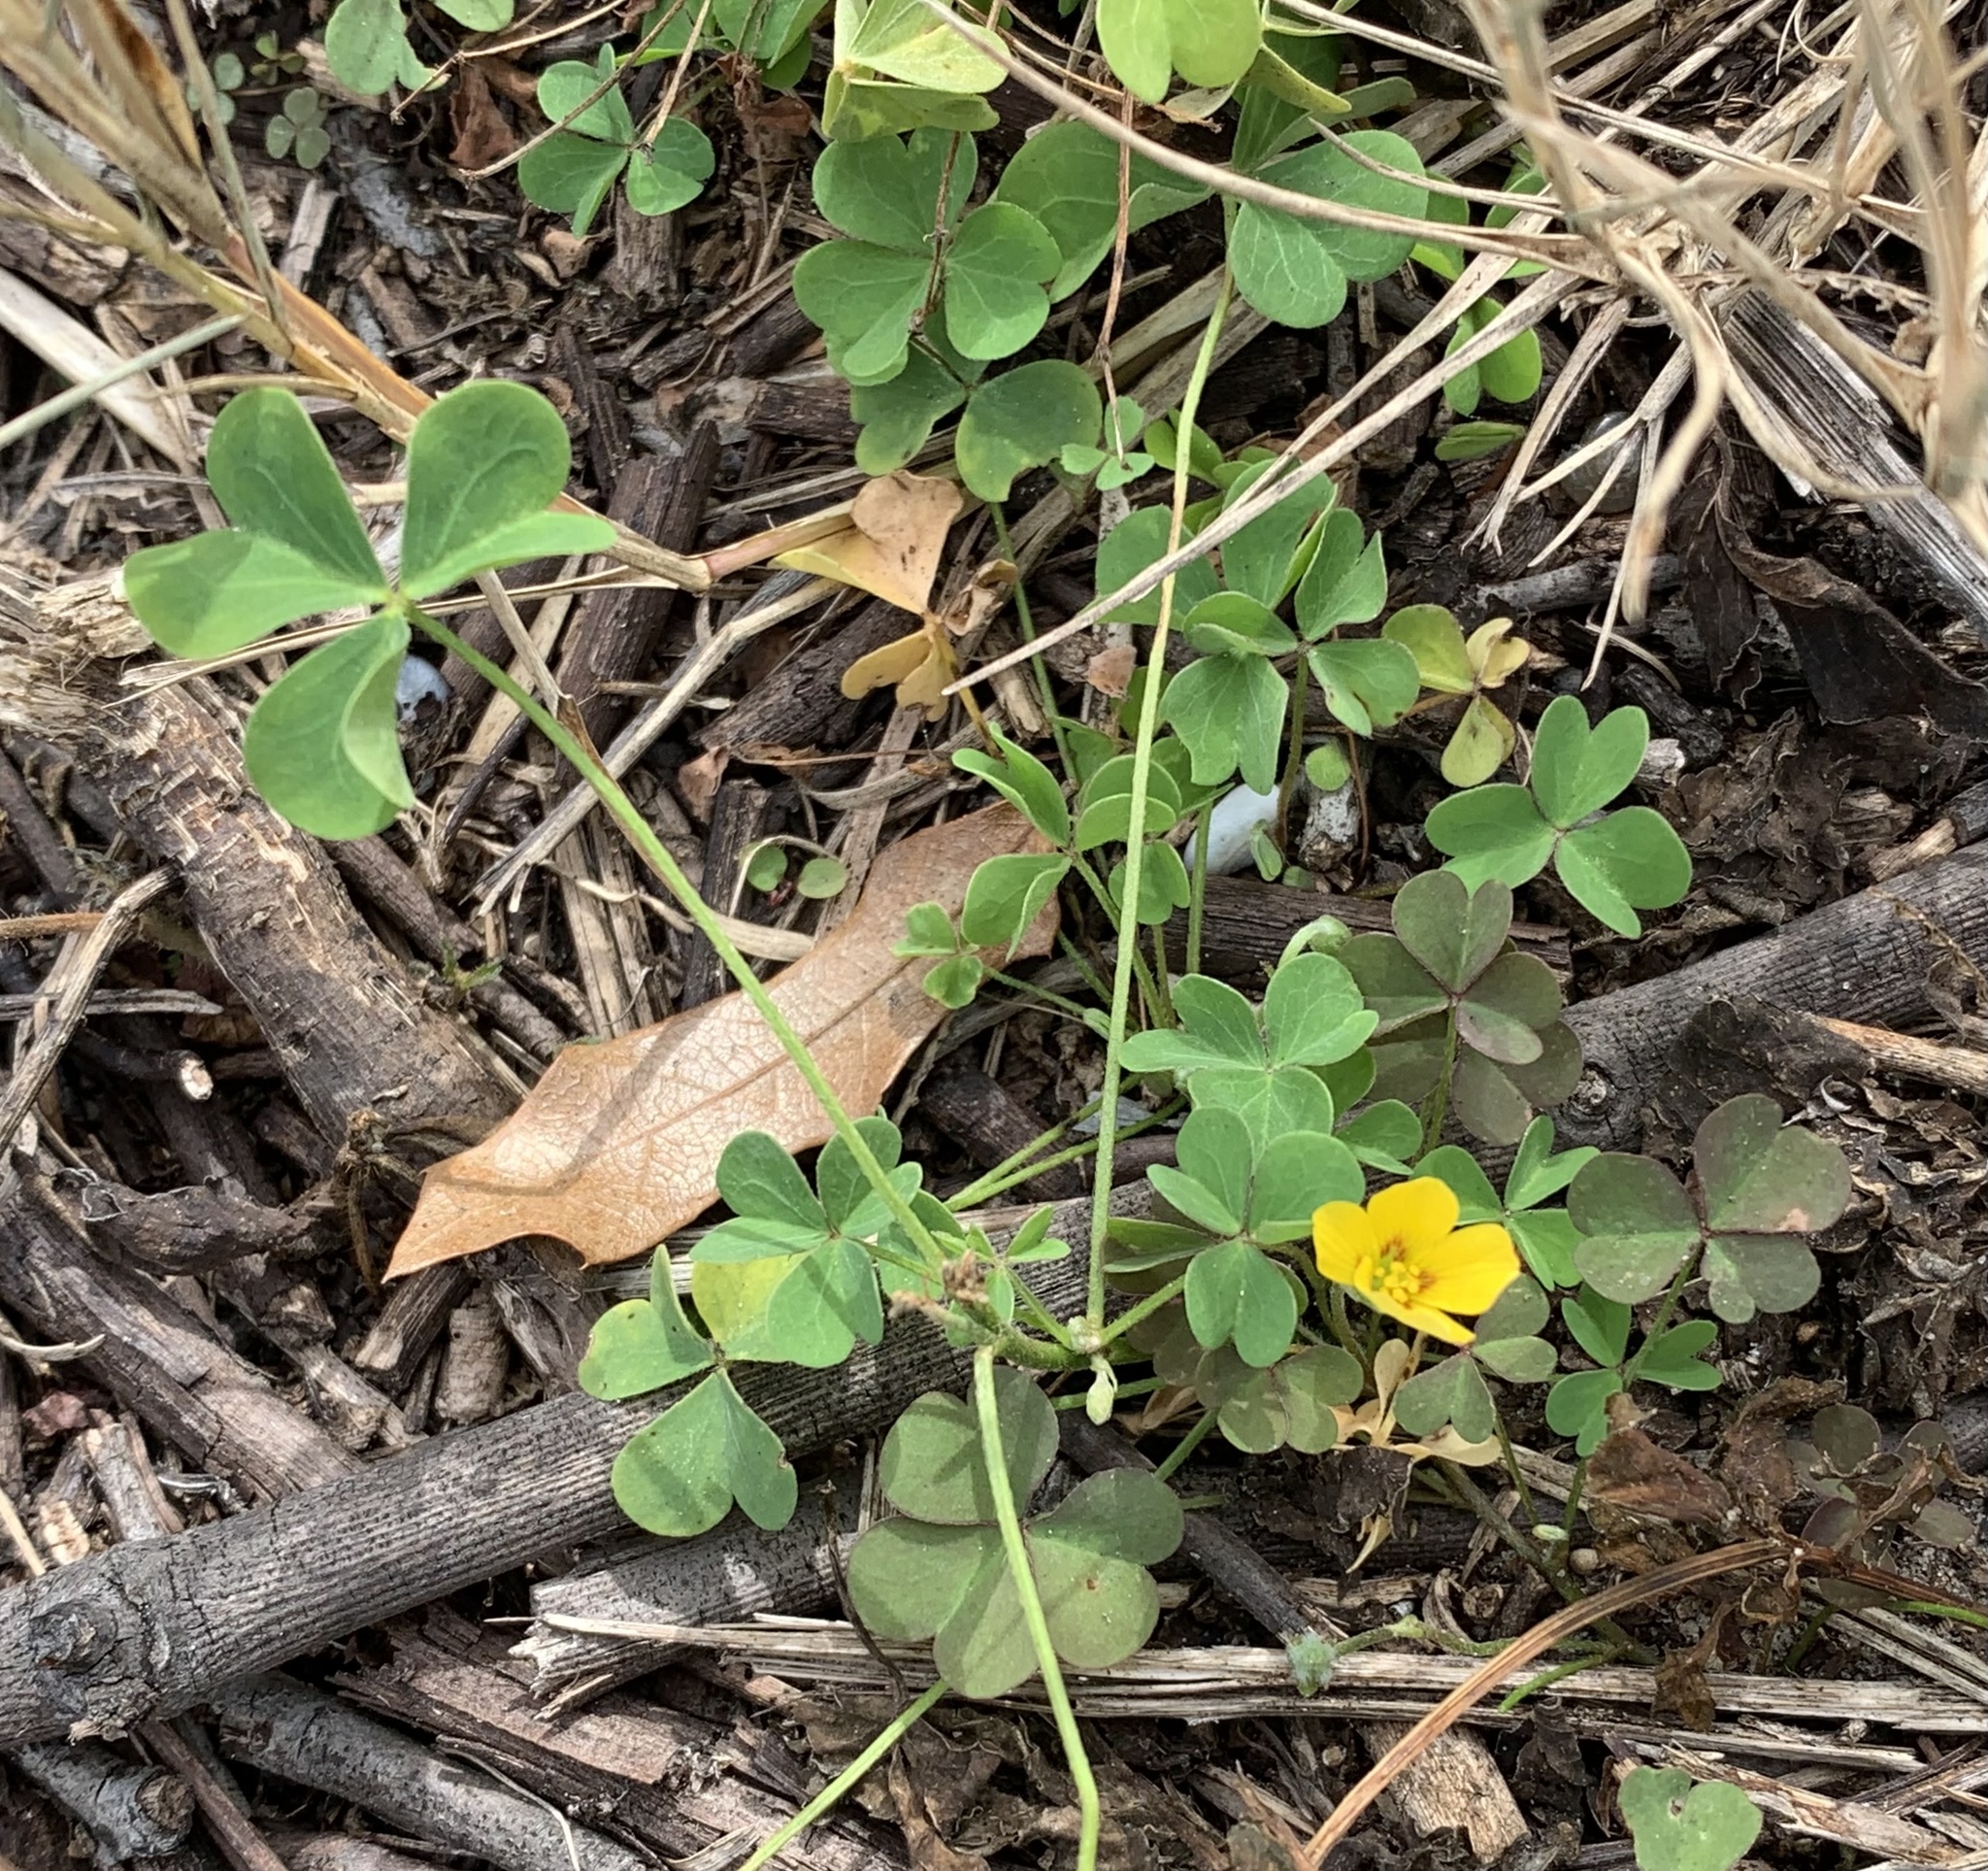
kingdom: Plantae
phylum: Tracheophyta
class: Magnoliopsida
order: Oxalidales
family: Oxalidaceae
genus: Oxalis
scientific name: Oxalis corniculata
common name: Procumbent yellow-sorrel
